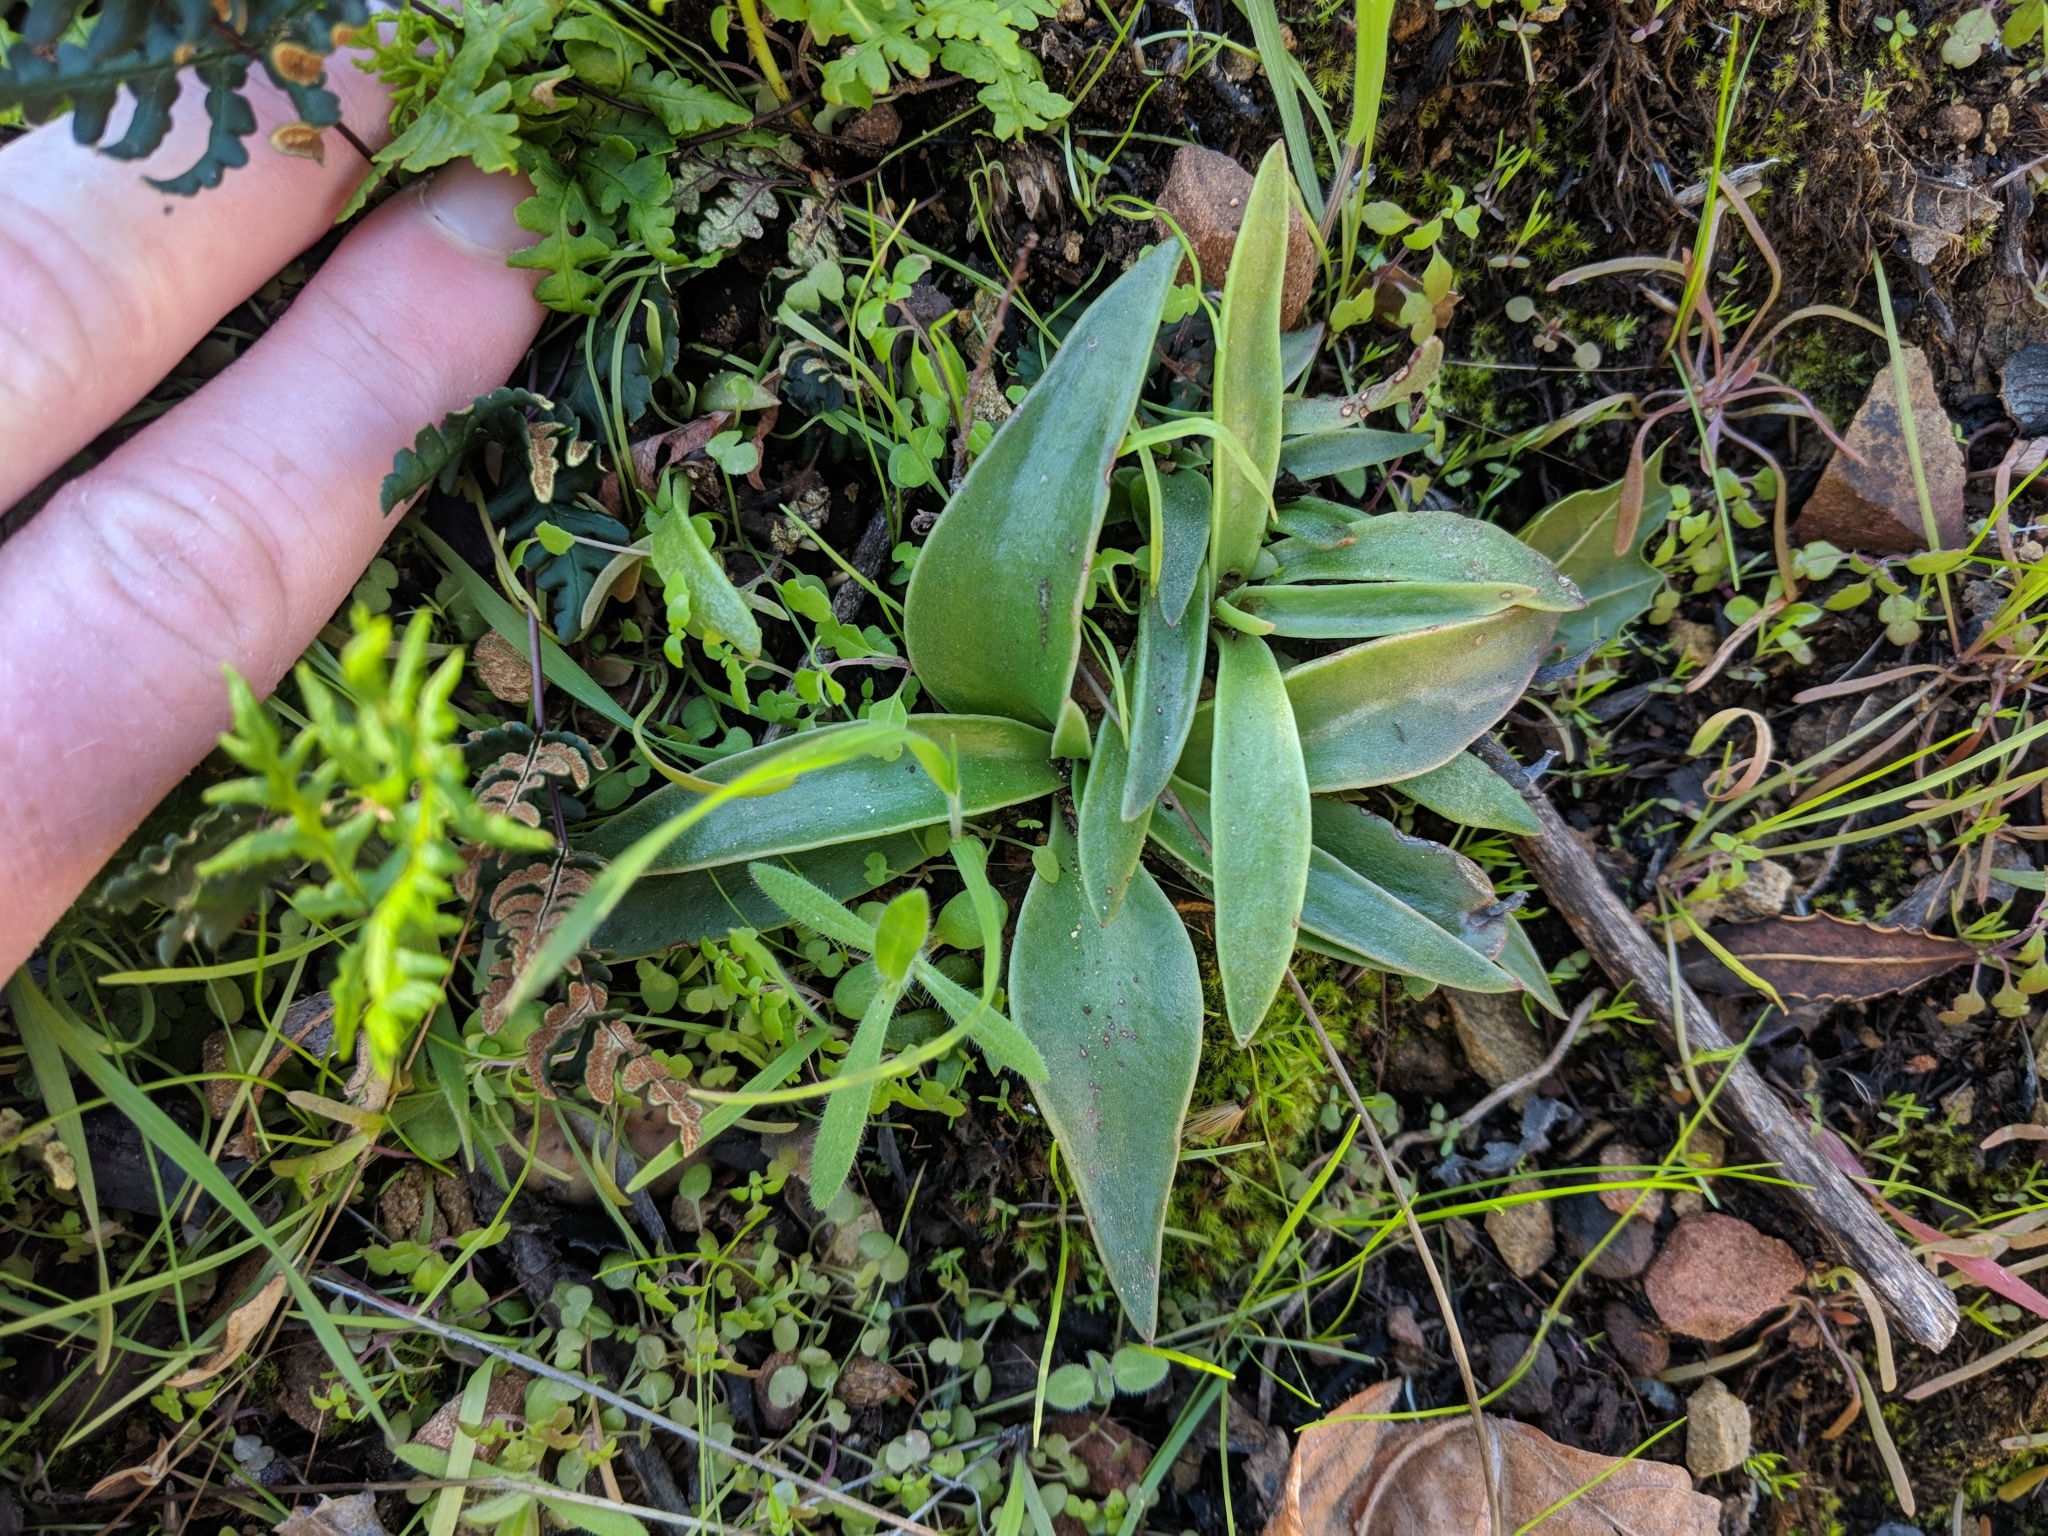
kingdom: Plantae
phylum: Tracheophyta
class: Magnoliopsida
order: Saxifragales
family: Crassulaceae
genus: Dudleya
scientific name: Dudleya lanceolata
